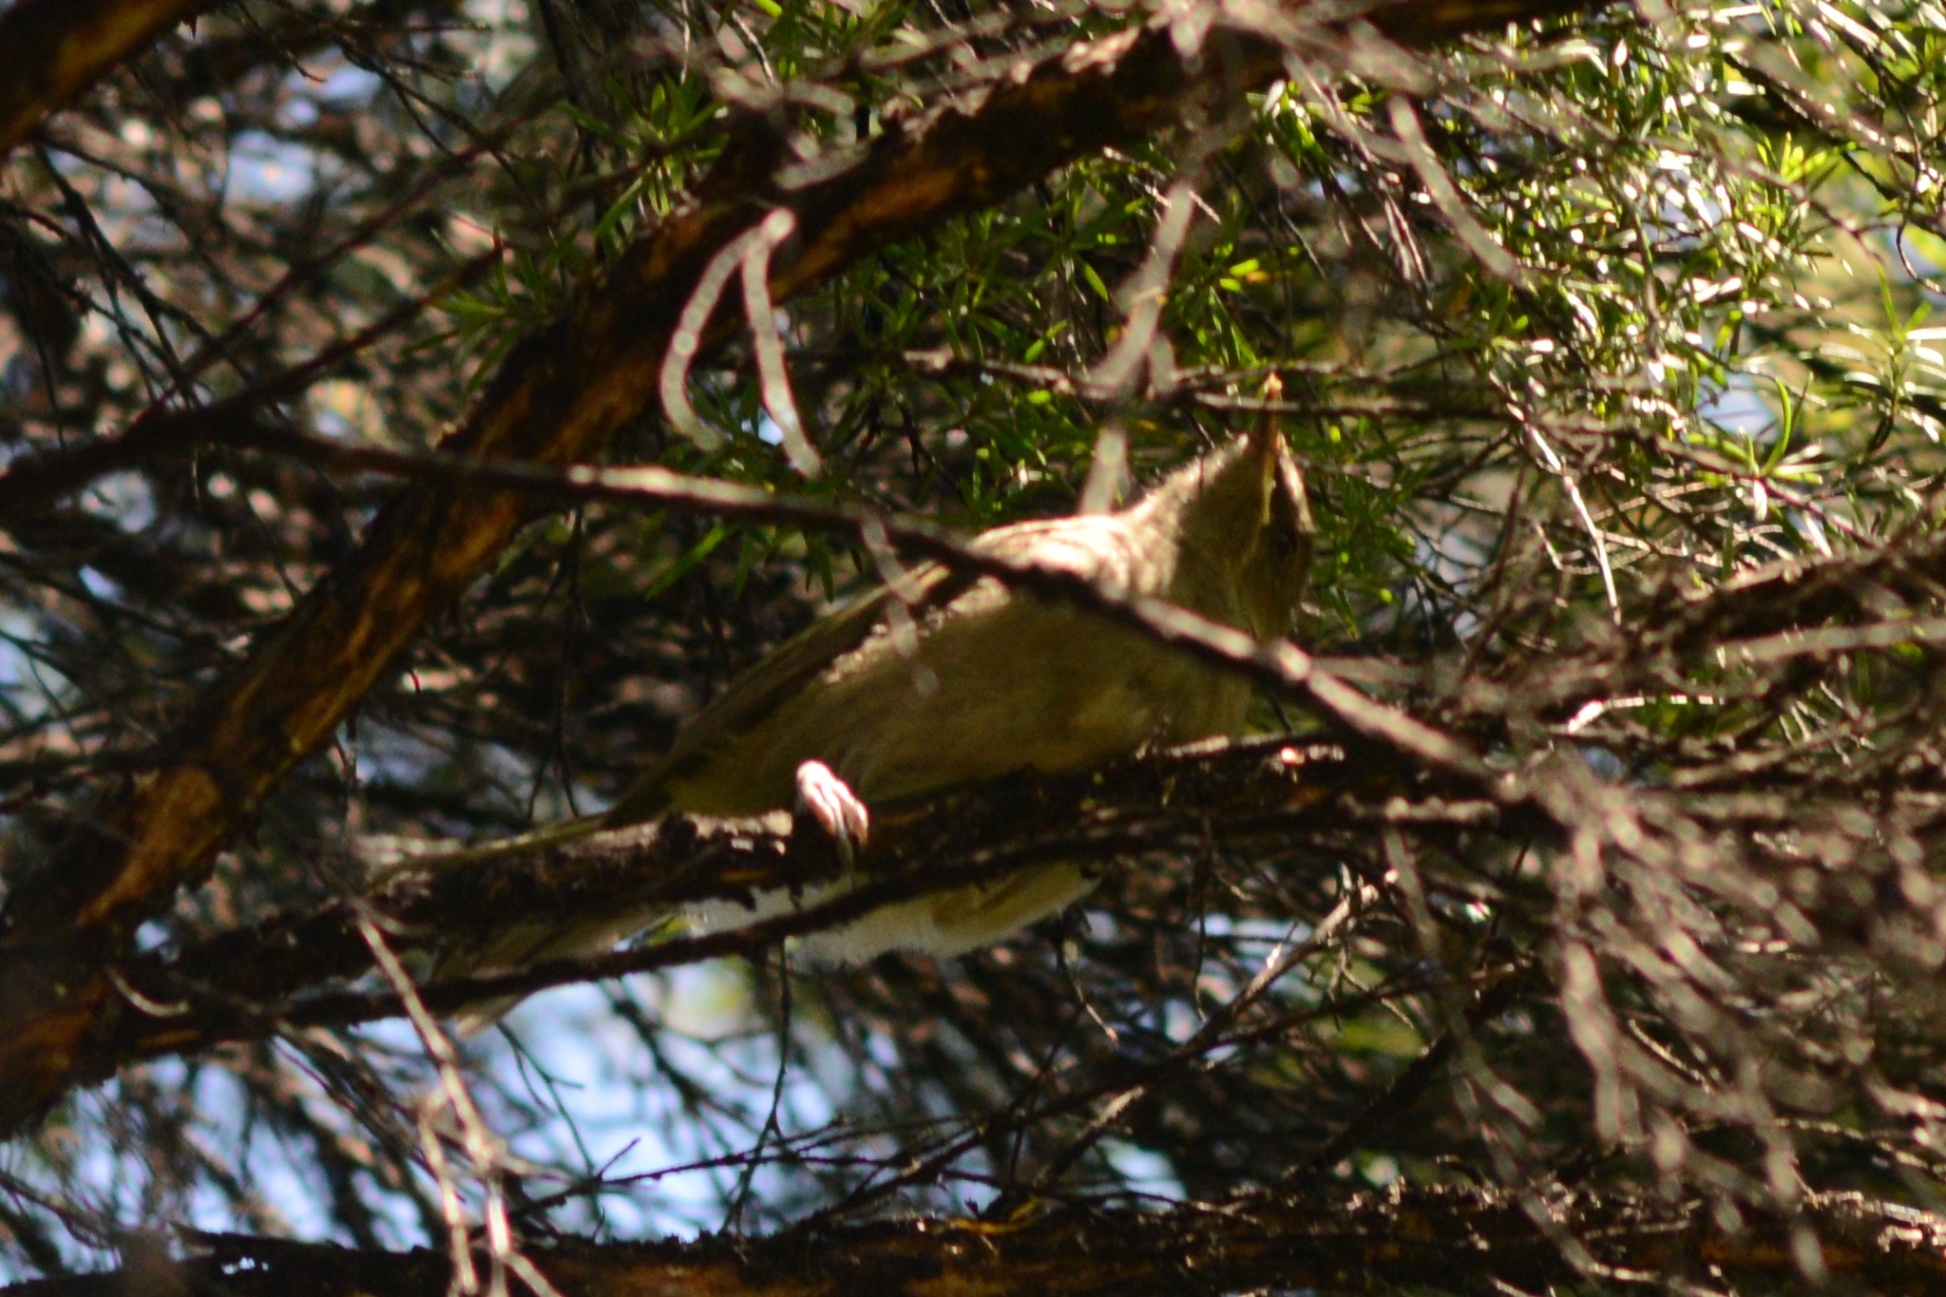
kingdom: Animalia
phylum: Chordata
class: Aves
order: Passeriformes
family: Meliphagidae
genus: Anthornis
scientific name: Anthornis melanura
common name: New zealand bellbird
